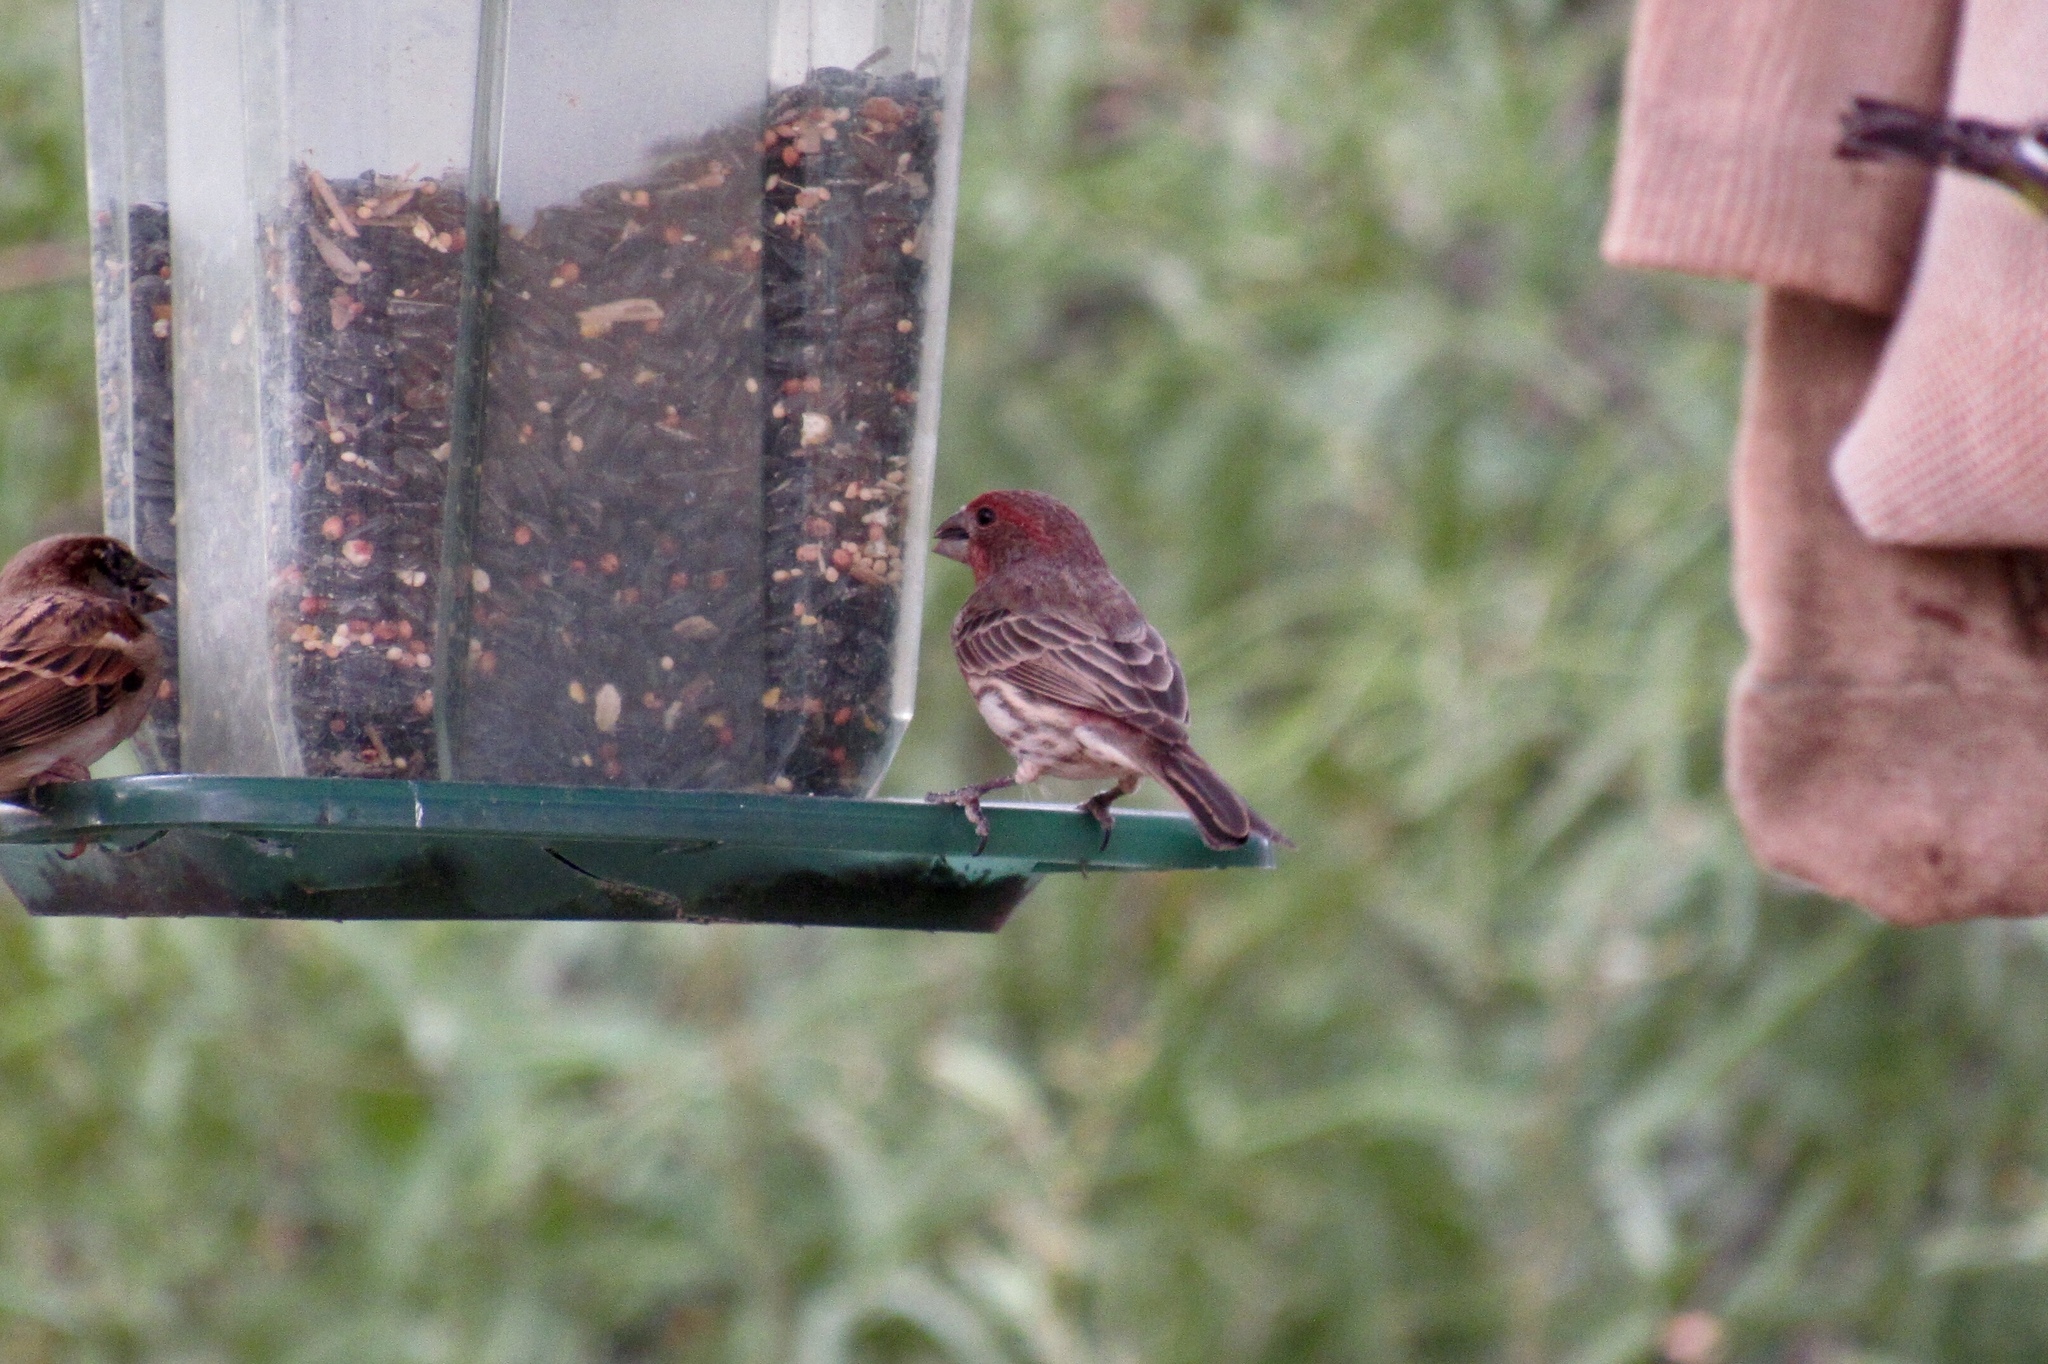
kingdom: Animalia
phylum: Chordata
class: Aves
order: Passeriformes
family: Fringillidae
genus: Haemorhous
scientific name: Haemorhous mexicanus
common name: House finch
